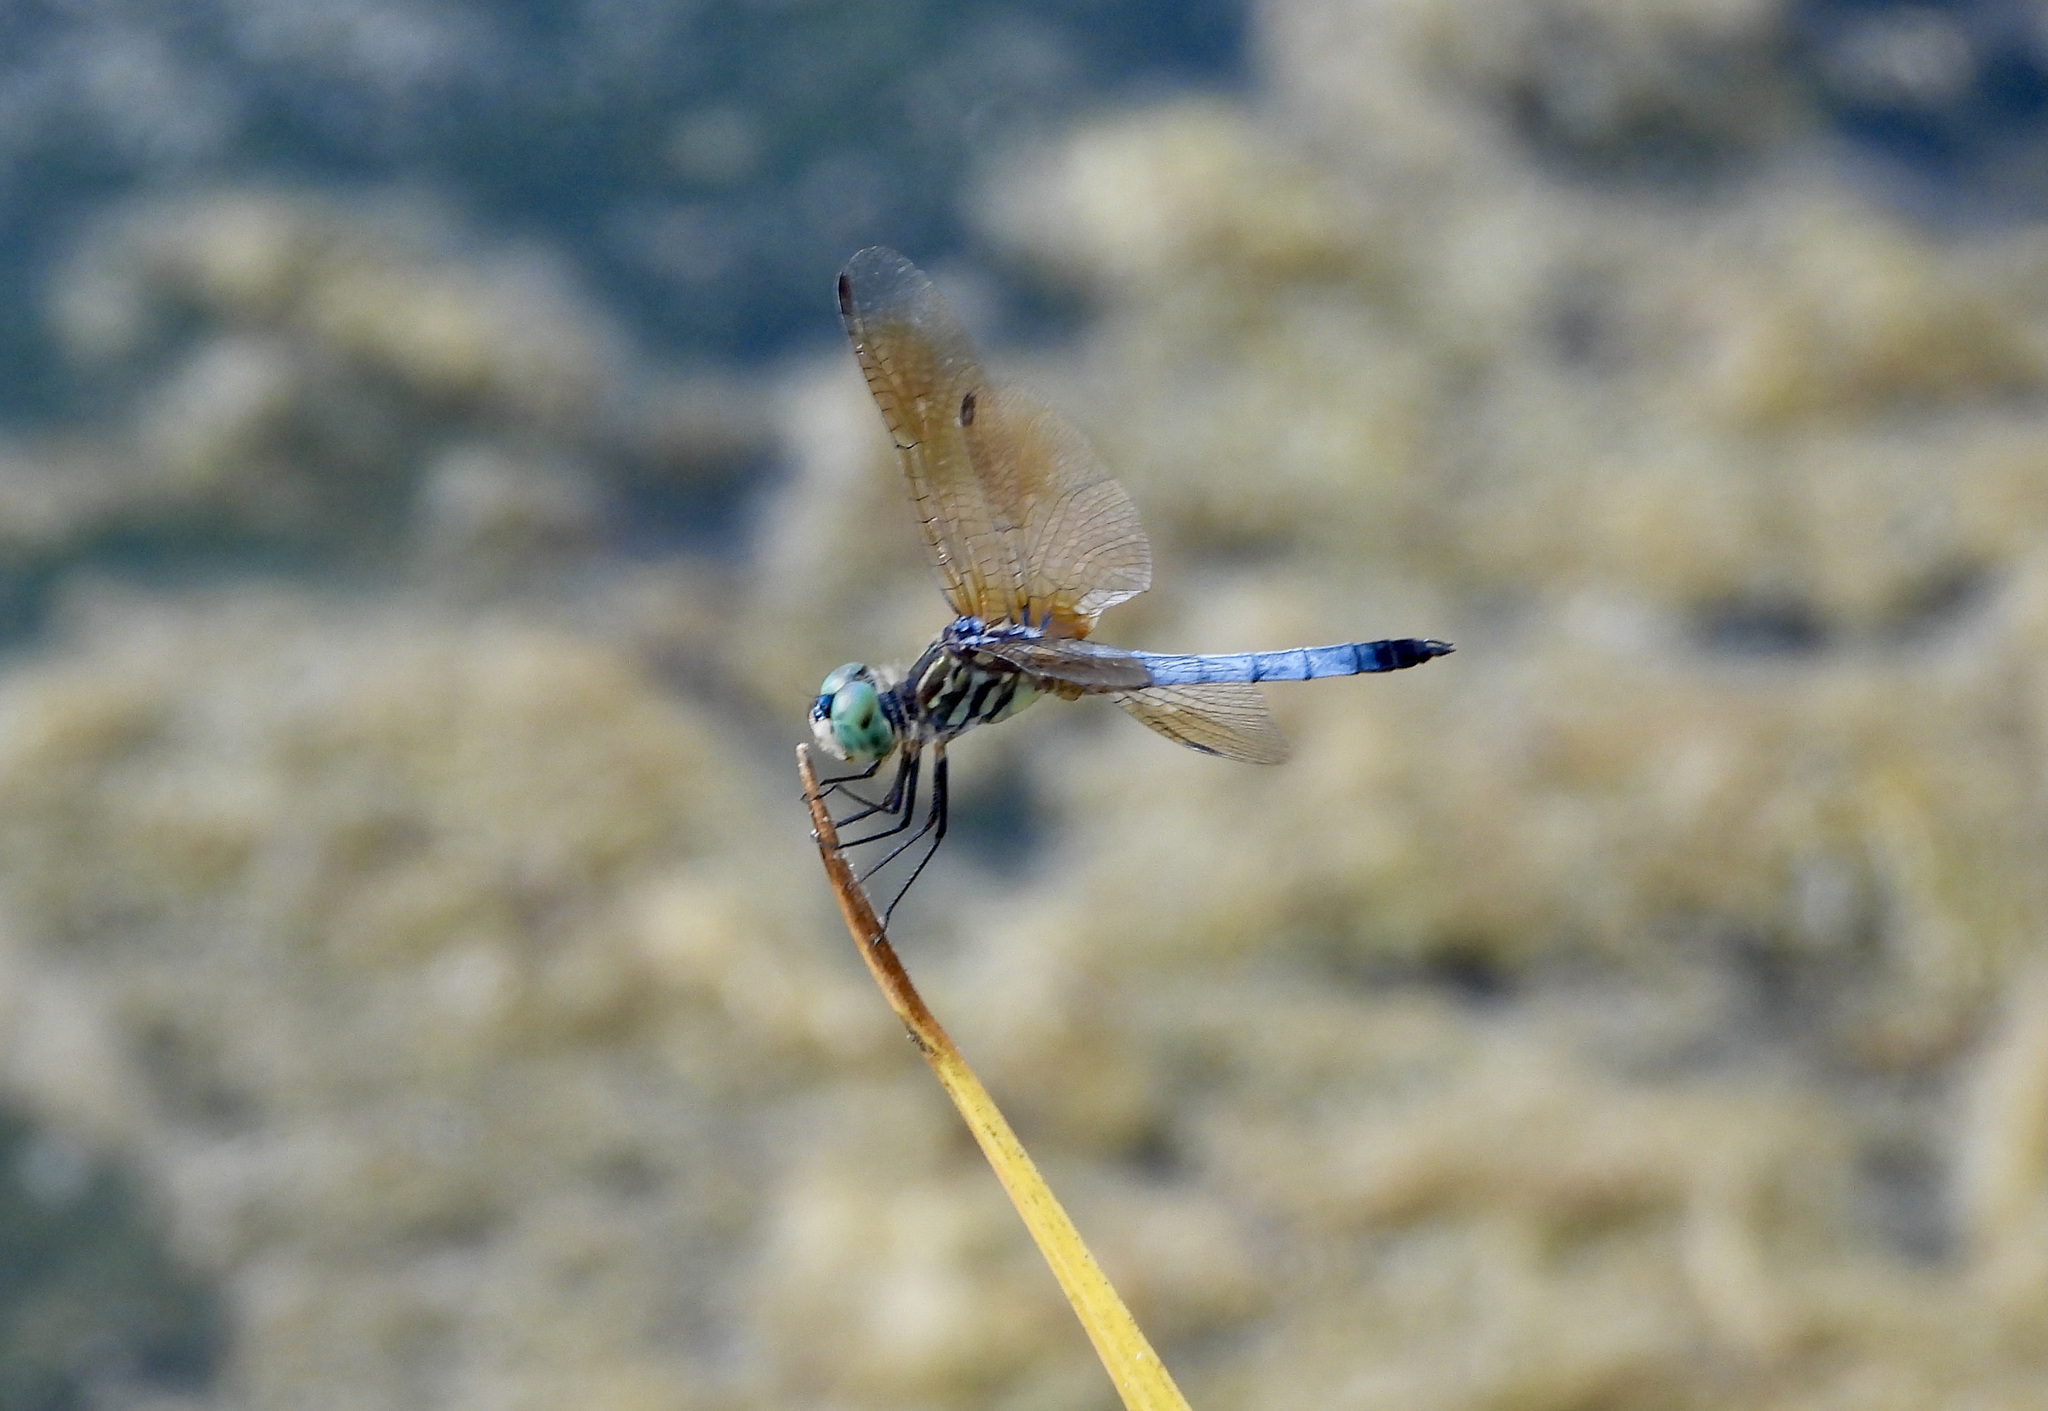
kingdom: Animalia
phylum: Arthropoda
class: Insecta
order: Odonata
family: Libellulidae
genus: Pachydiplax
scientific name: Pachydiplax longipennis
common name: Blue dasher
